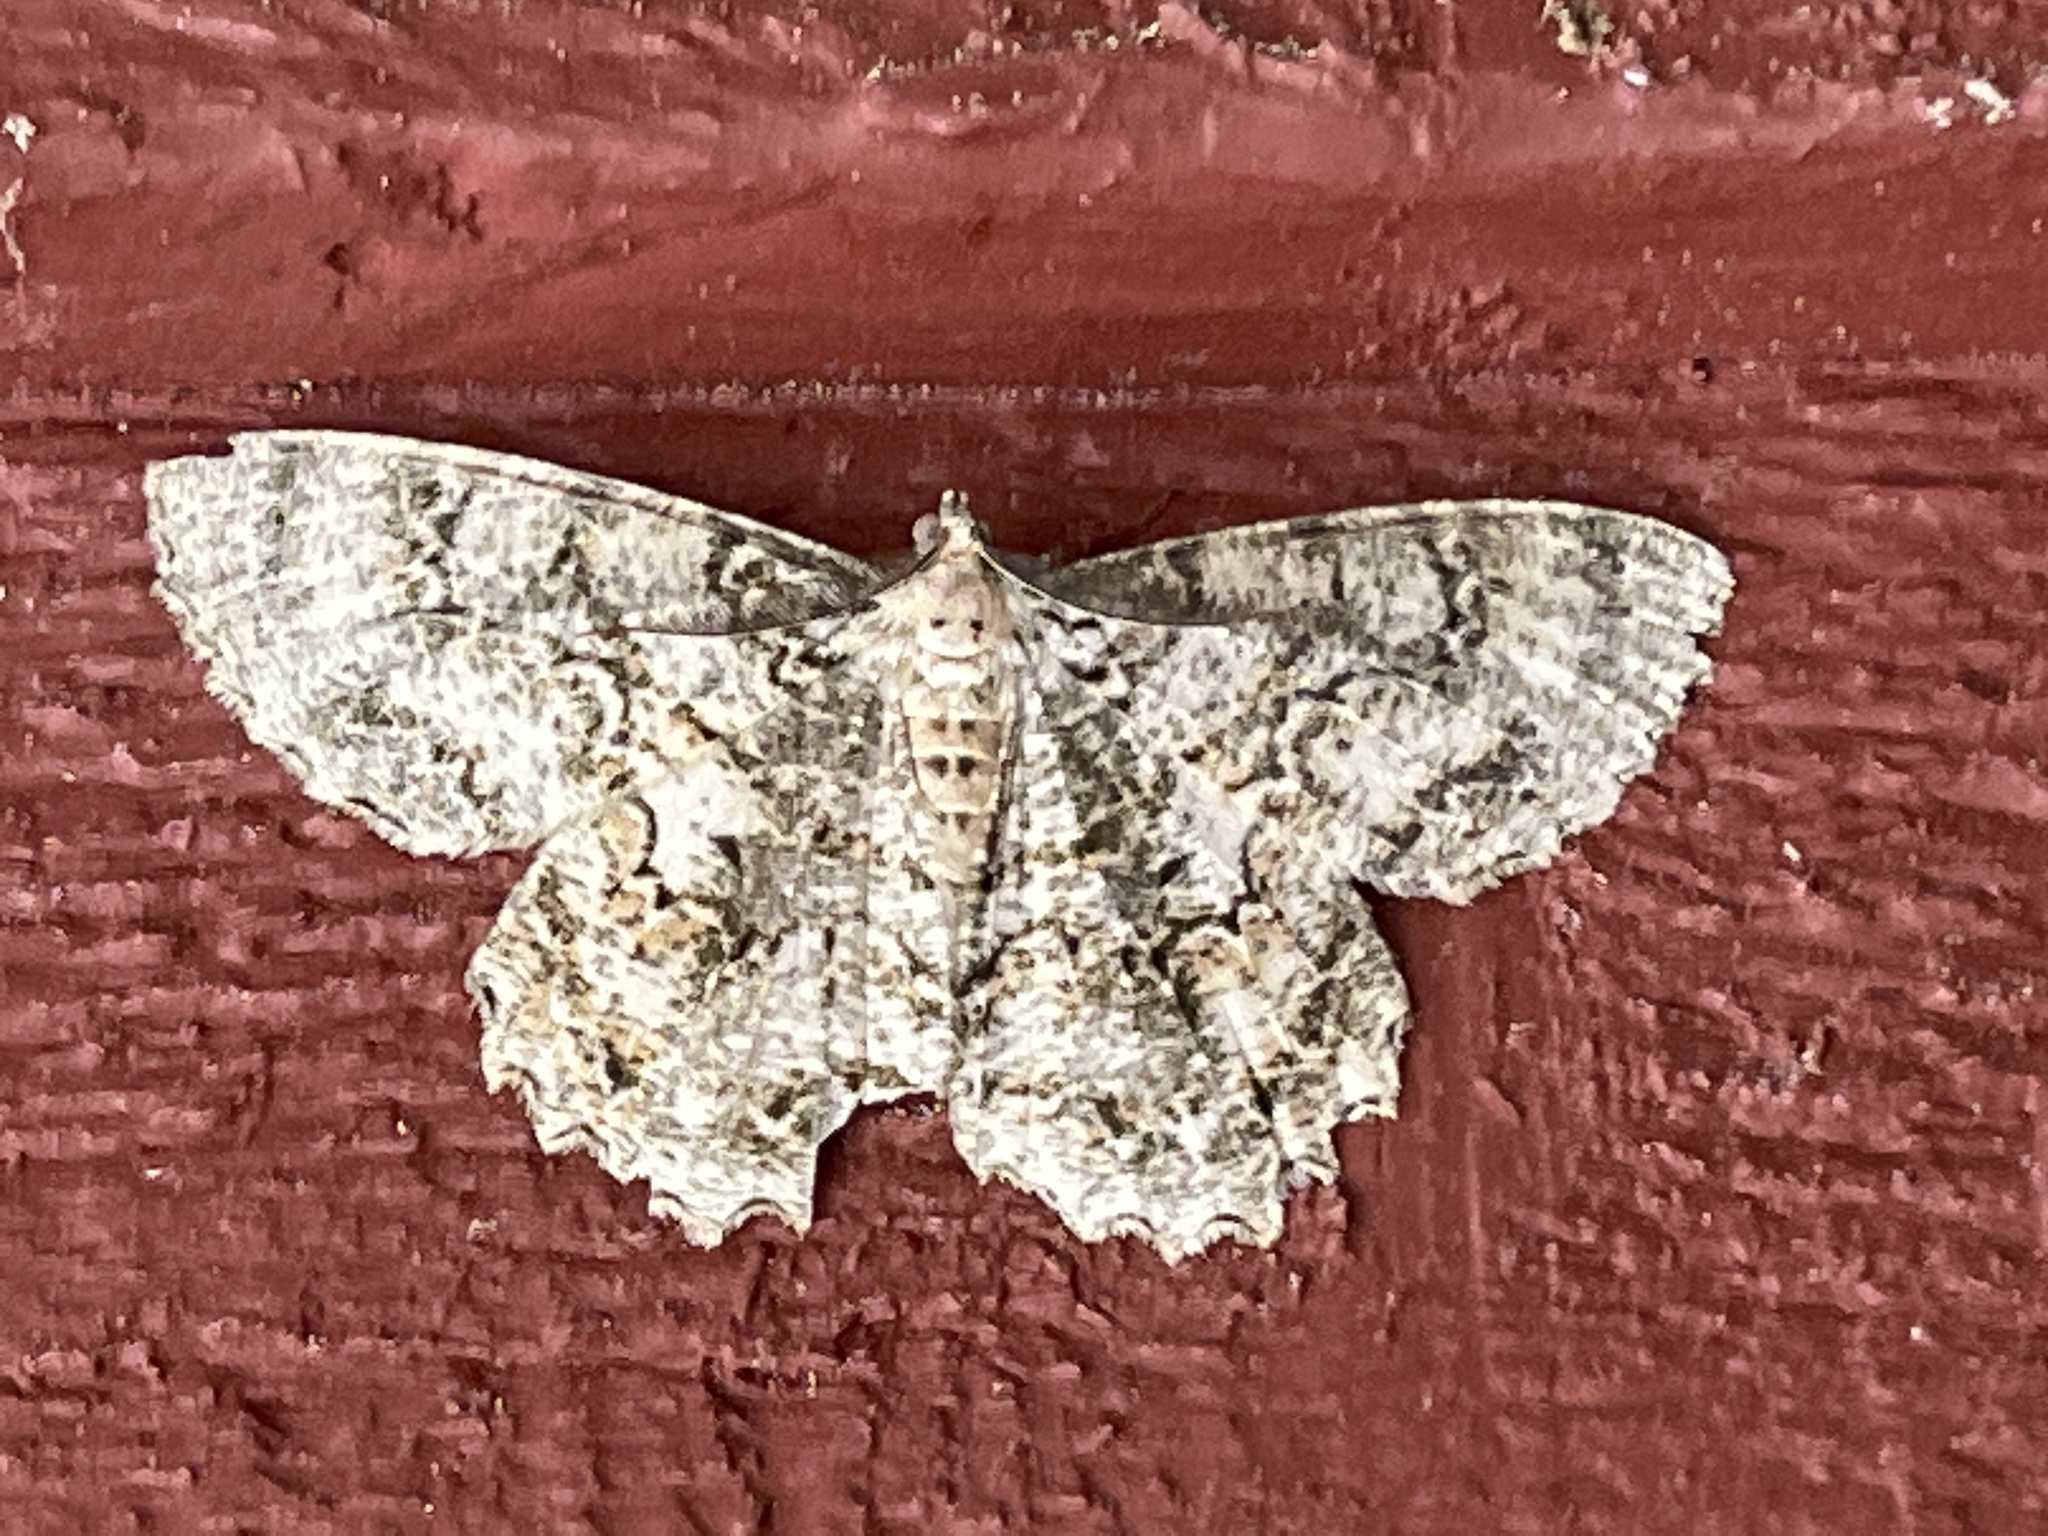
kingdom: Animalia
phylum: Arthropoda
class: Insecta
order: Lepidoptera
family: Geometridae
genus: Epimecis
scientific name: Epimecis hortaria
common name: Tulip-tree beauty
